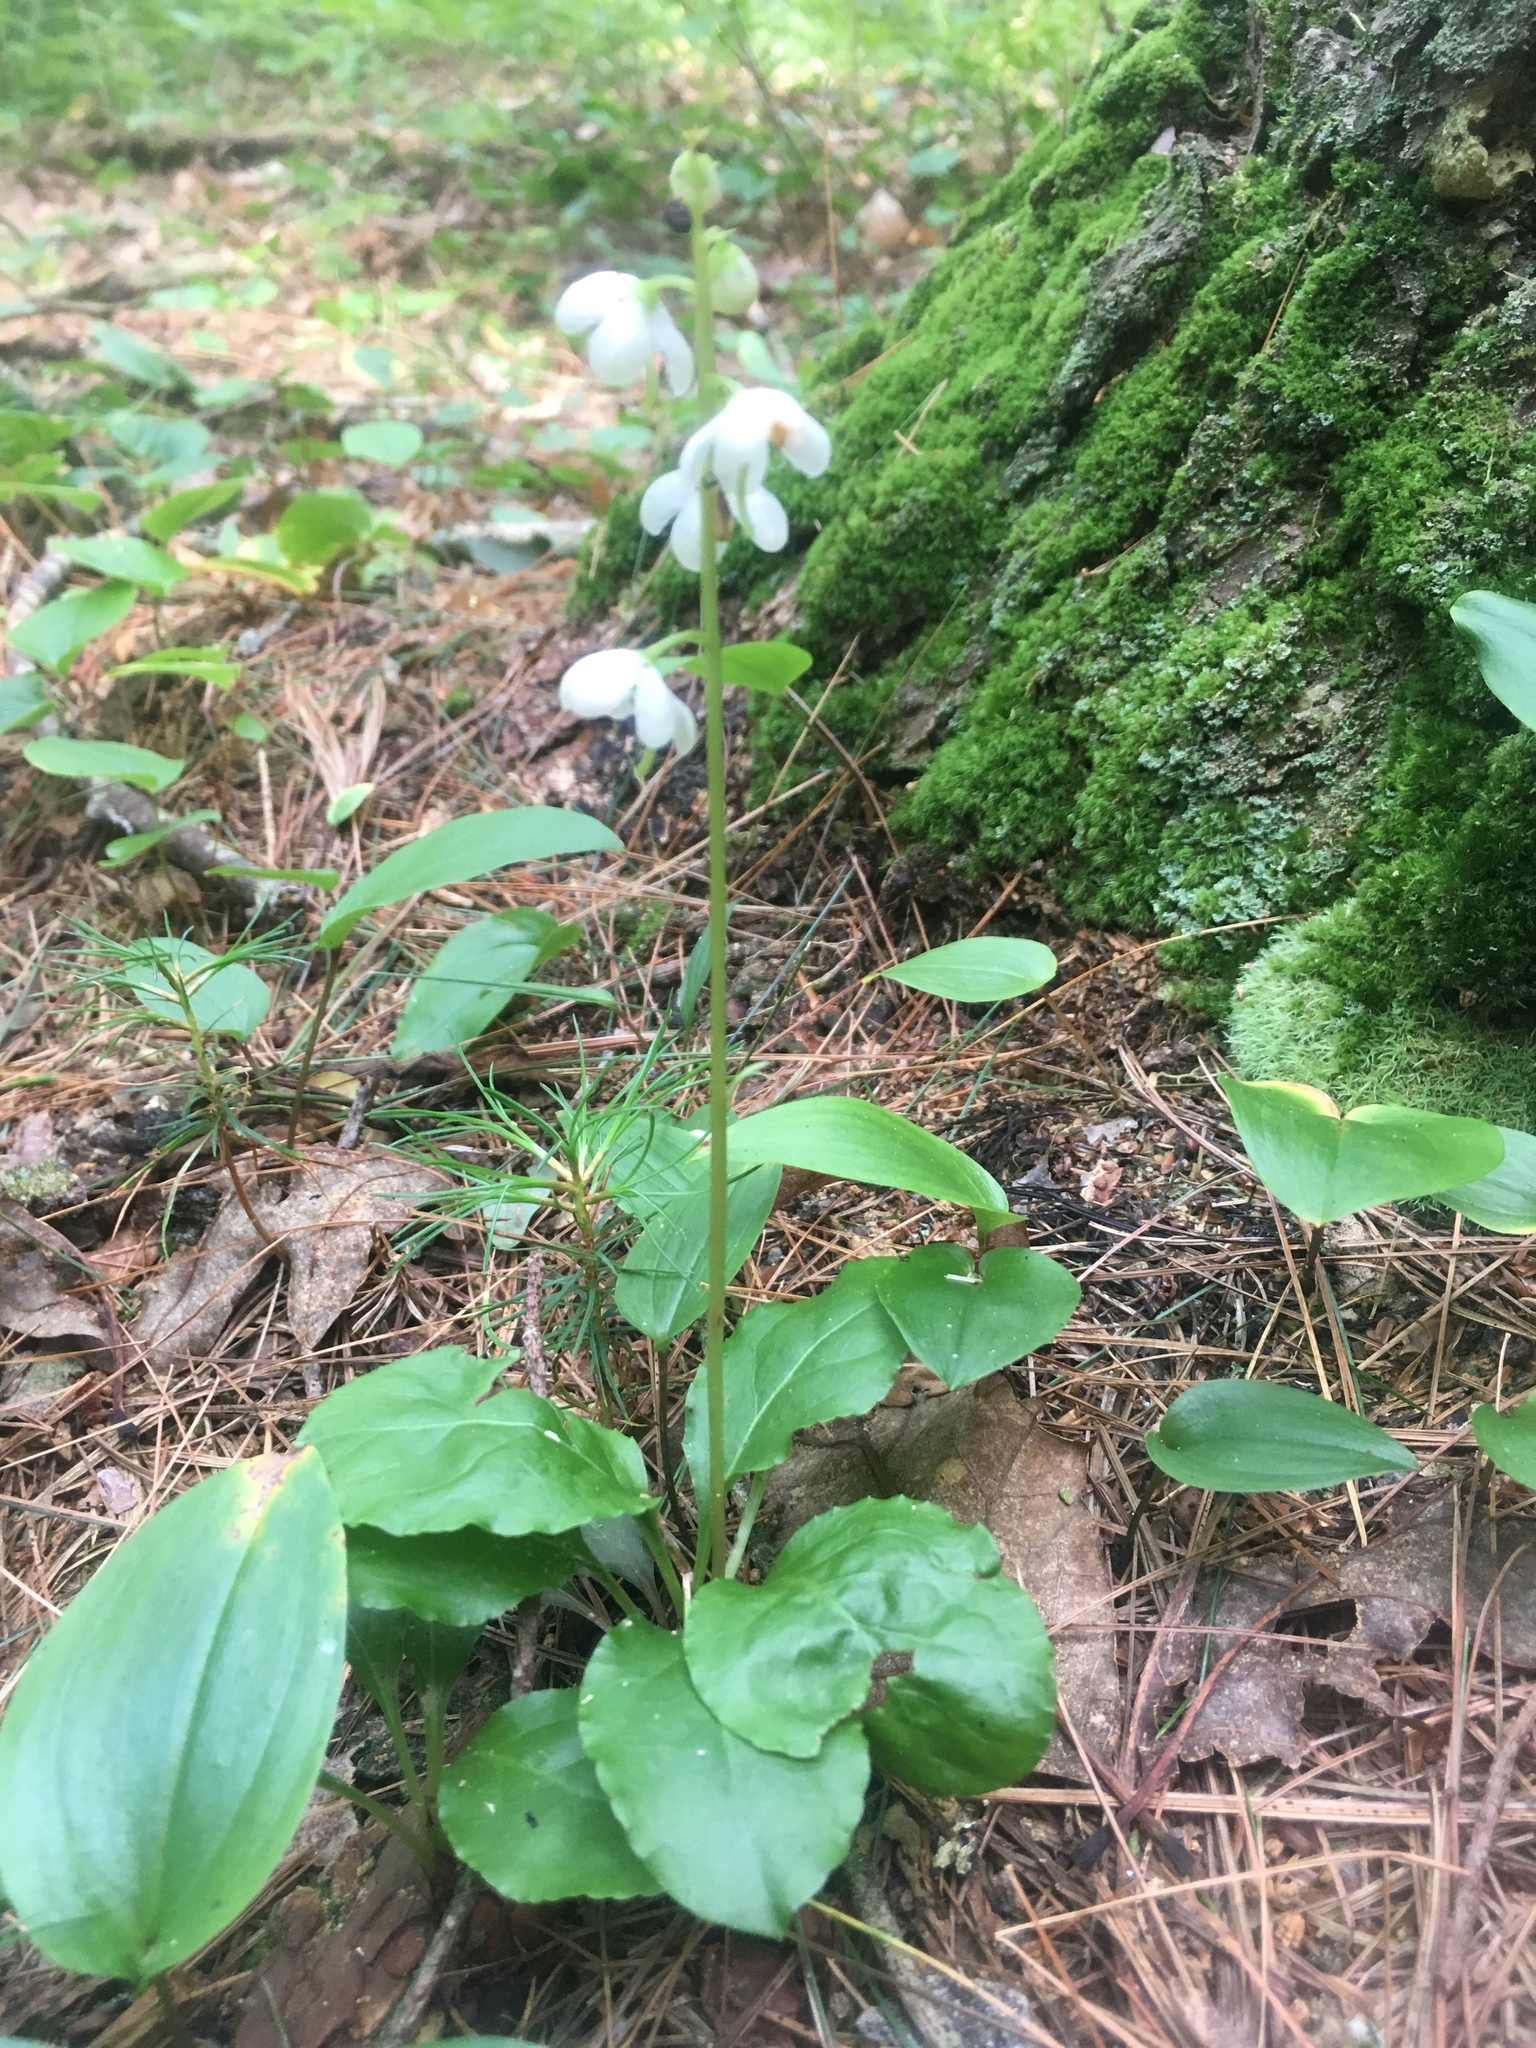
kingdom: Plantae
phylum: Tracheophyta
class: Magnoliopsida
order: Ericales
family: Ericaceae
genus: Pyrola
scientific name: Pyrola elliptica
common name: Shinleaf
